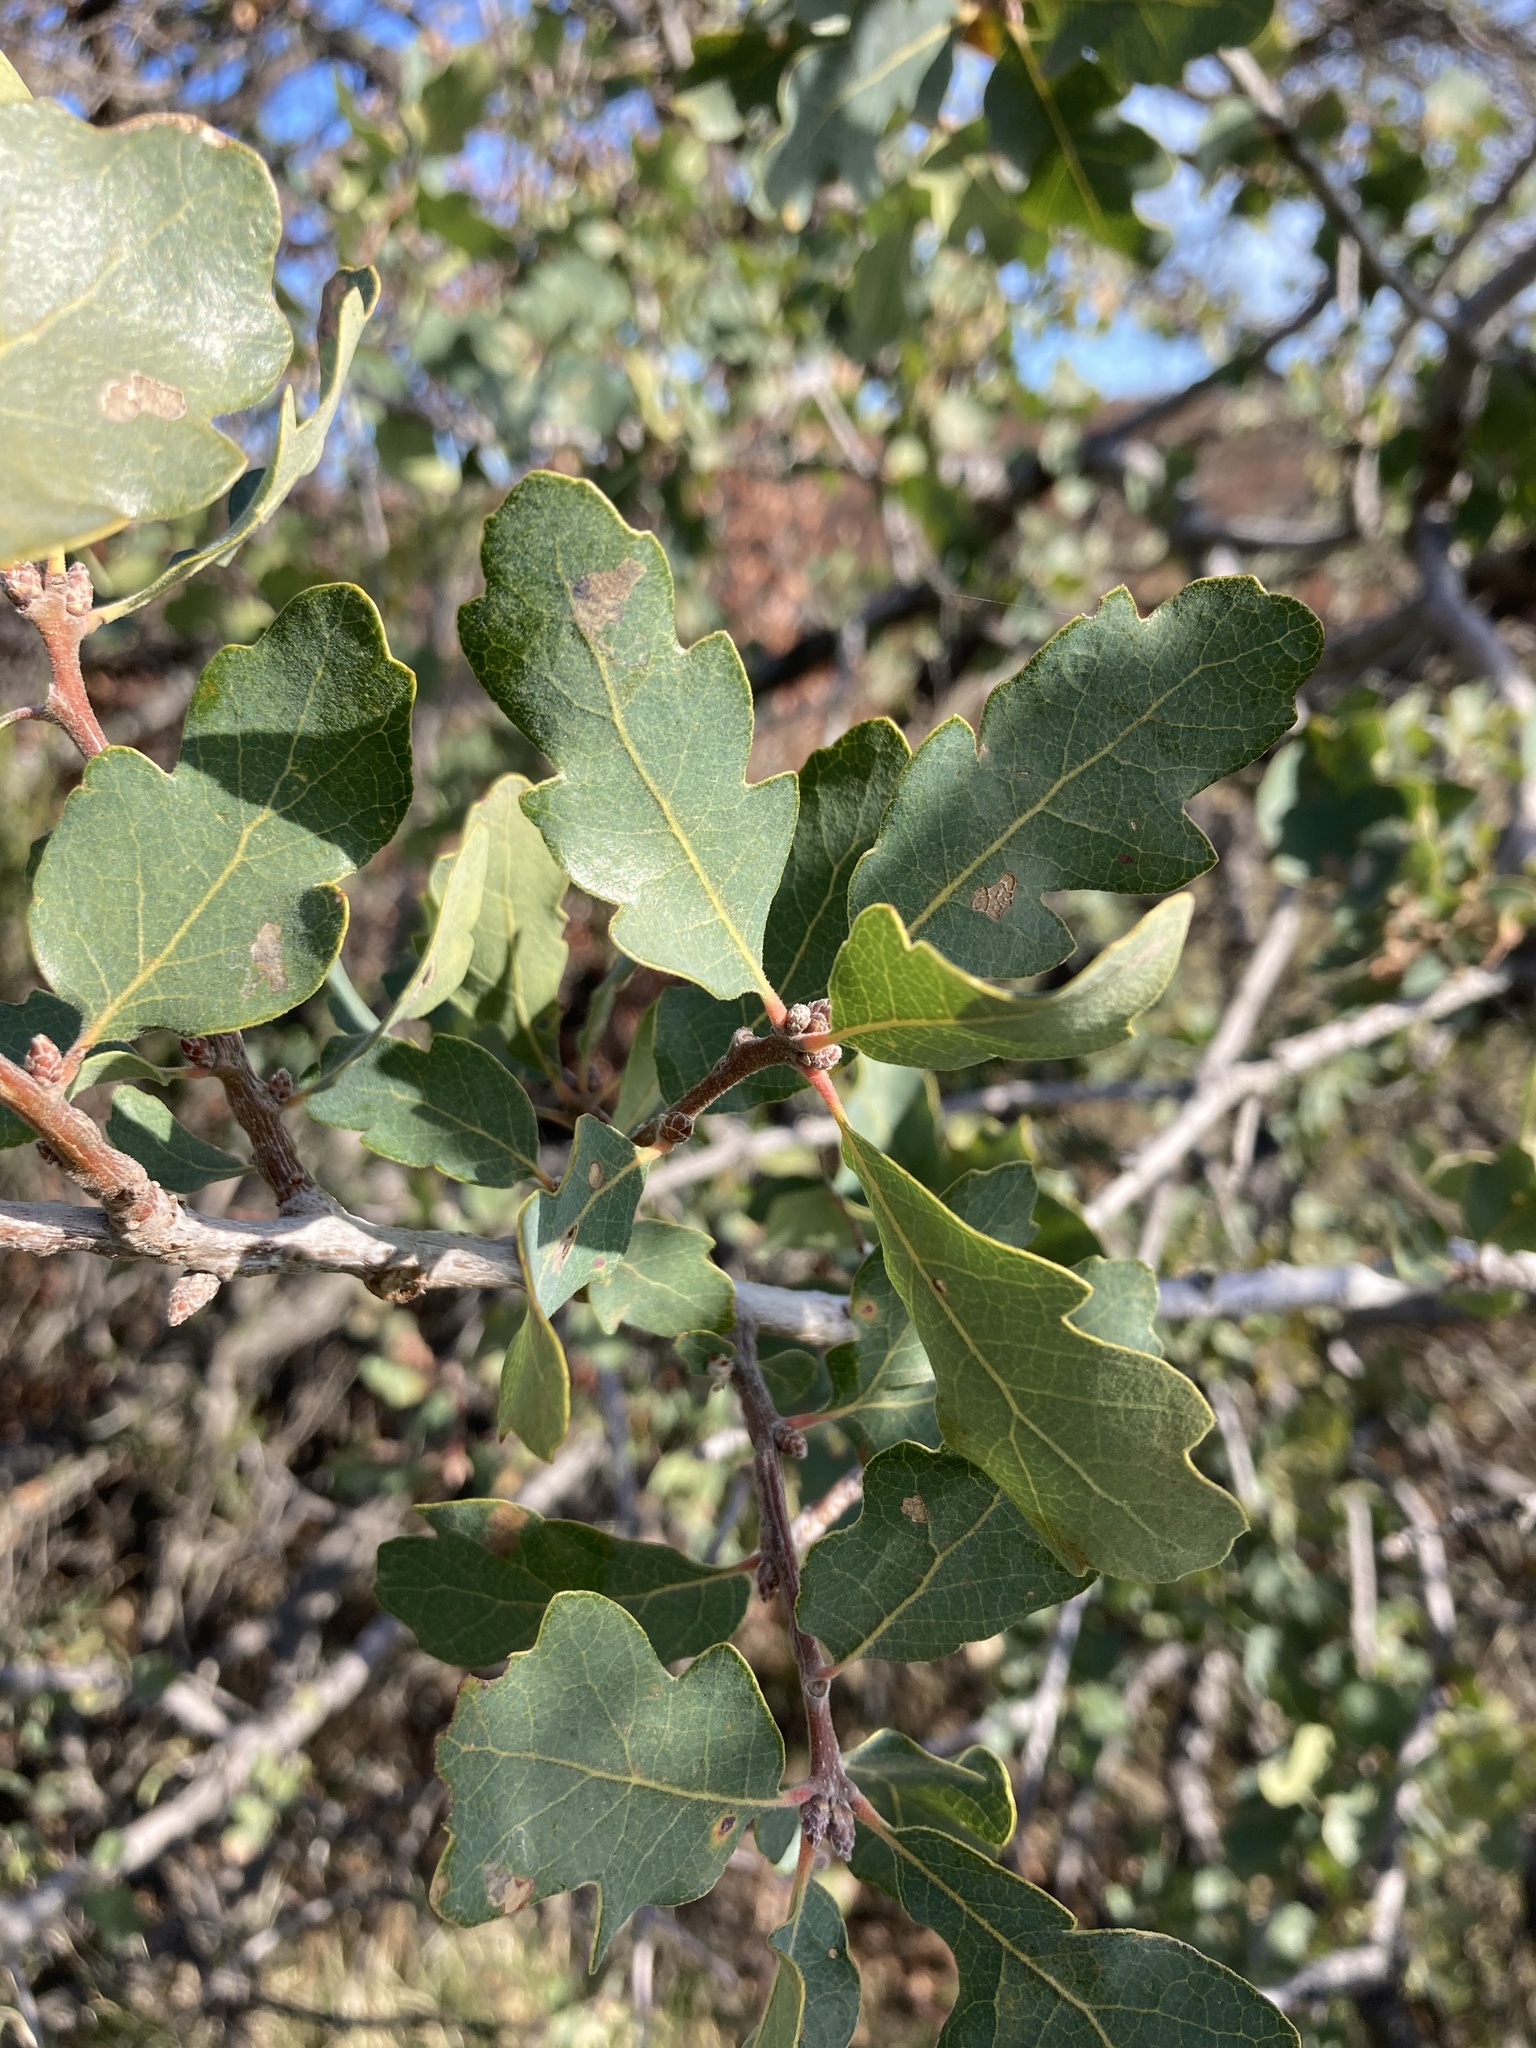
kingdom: Plantae
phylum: Tracheophyta
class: Magnoliopsida
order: Fagales
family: Fagaceae
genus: Quercus
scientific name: Quercus douglasii
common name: Blue oak
